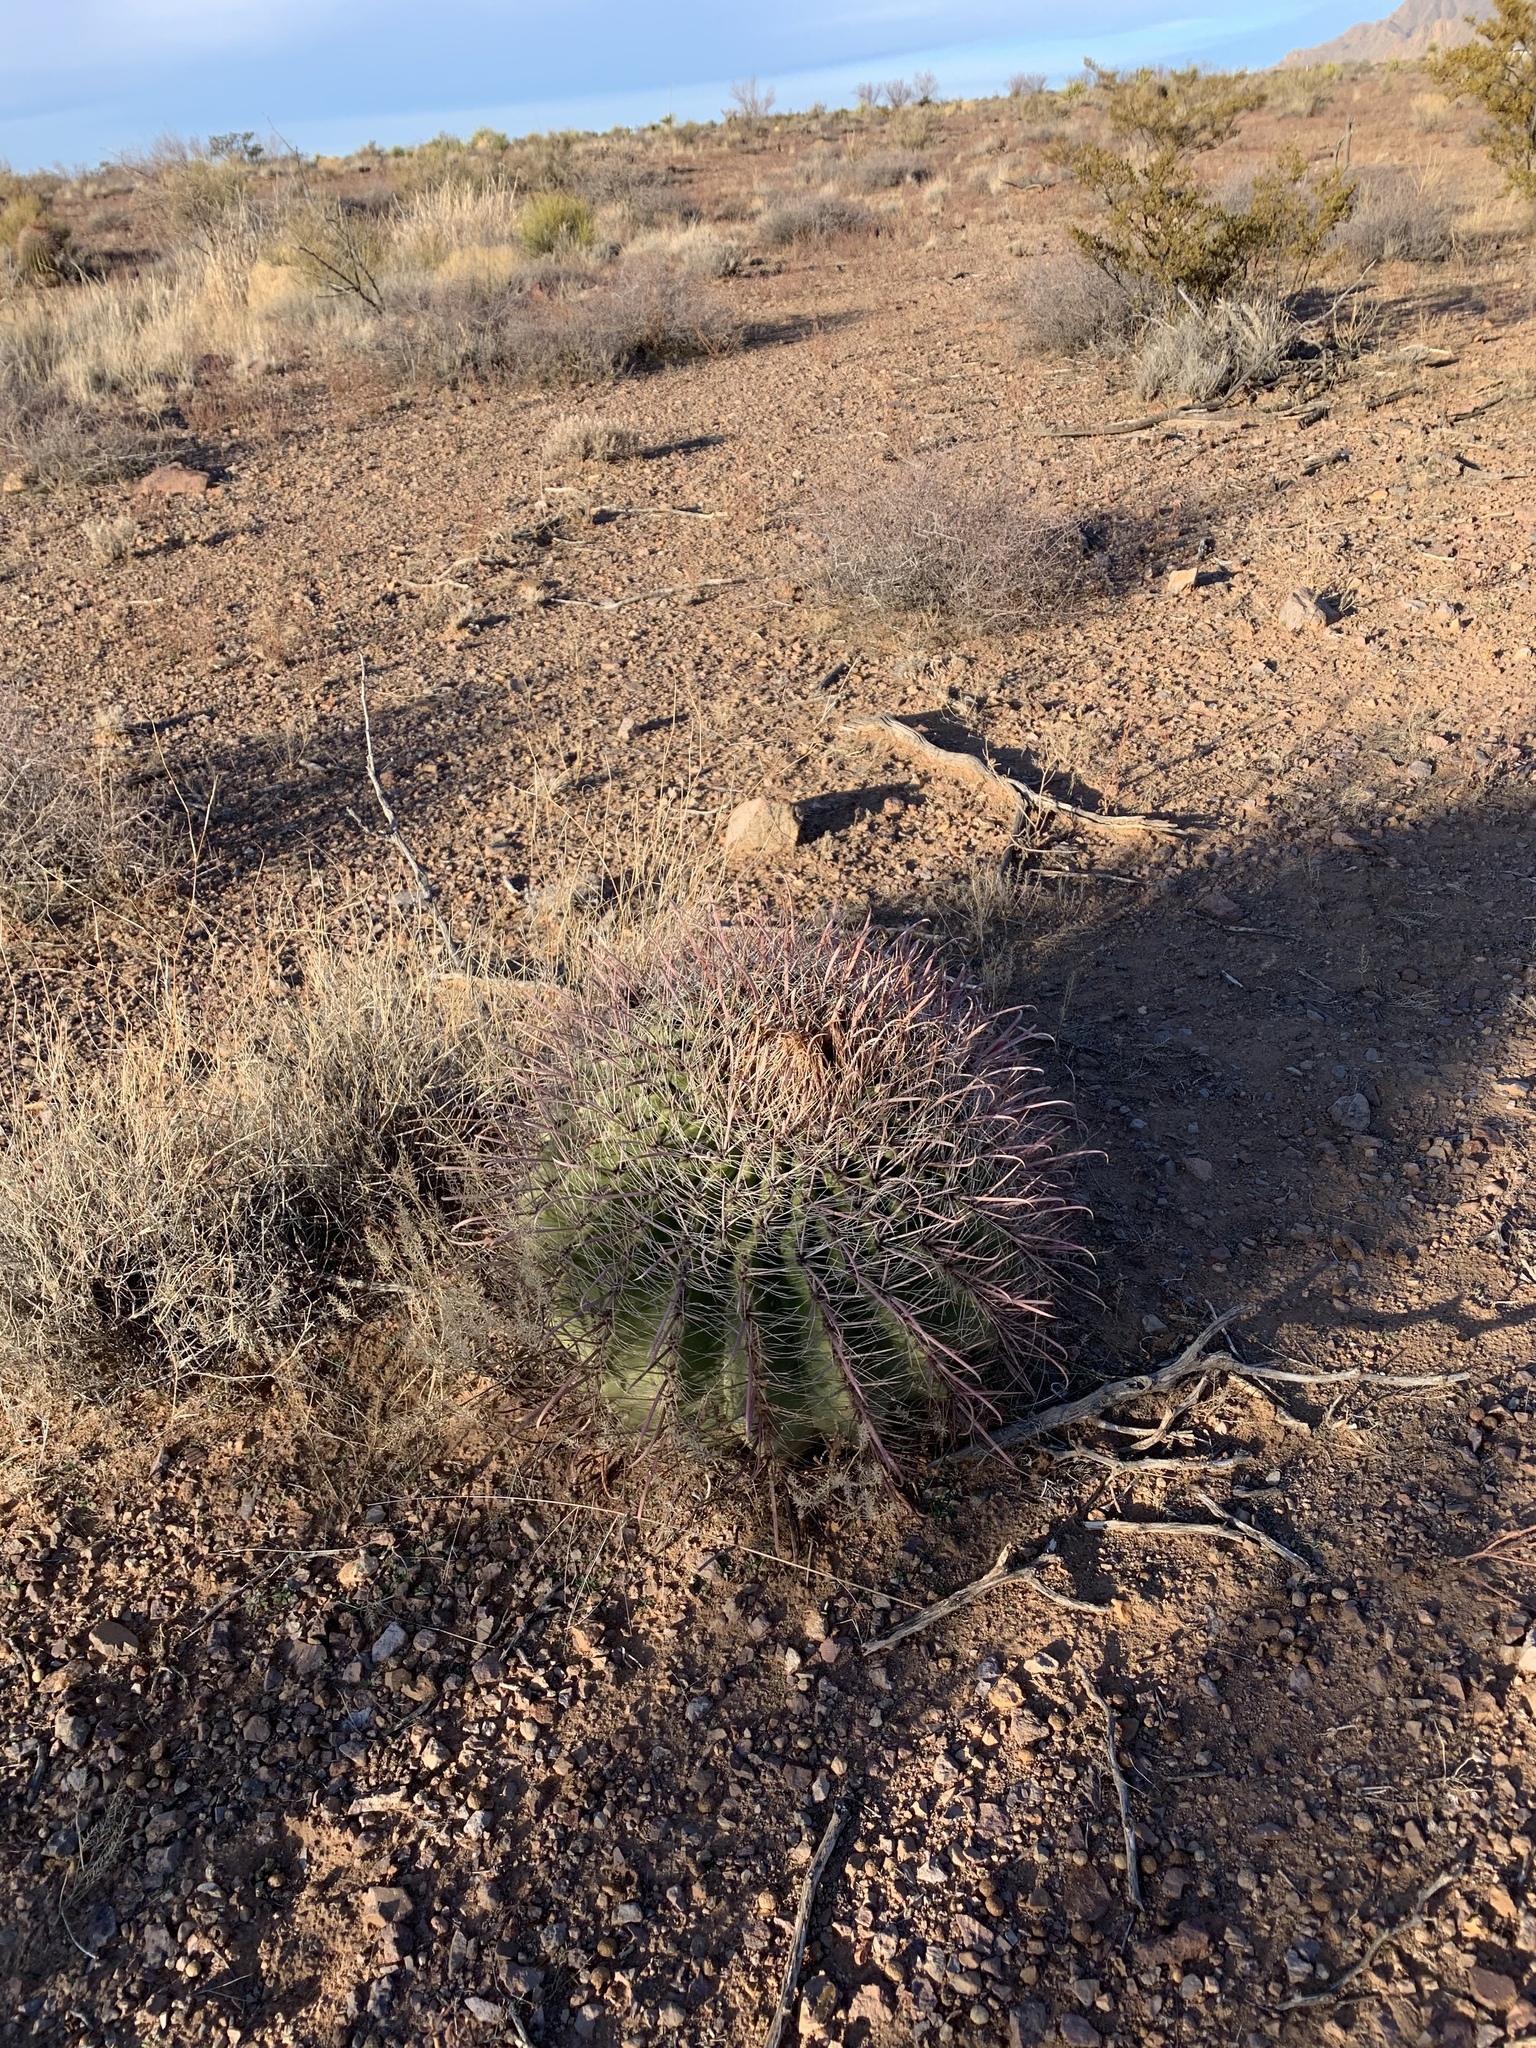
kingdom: Plantae
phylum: Tracheophyta
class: Magnoliopsida
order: Caryophyllales
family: Cactaceae
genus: Ferocactus
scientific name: Ferocactus wislizeni
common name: Candy barrel cactus
